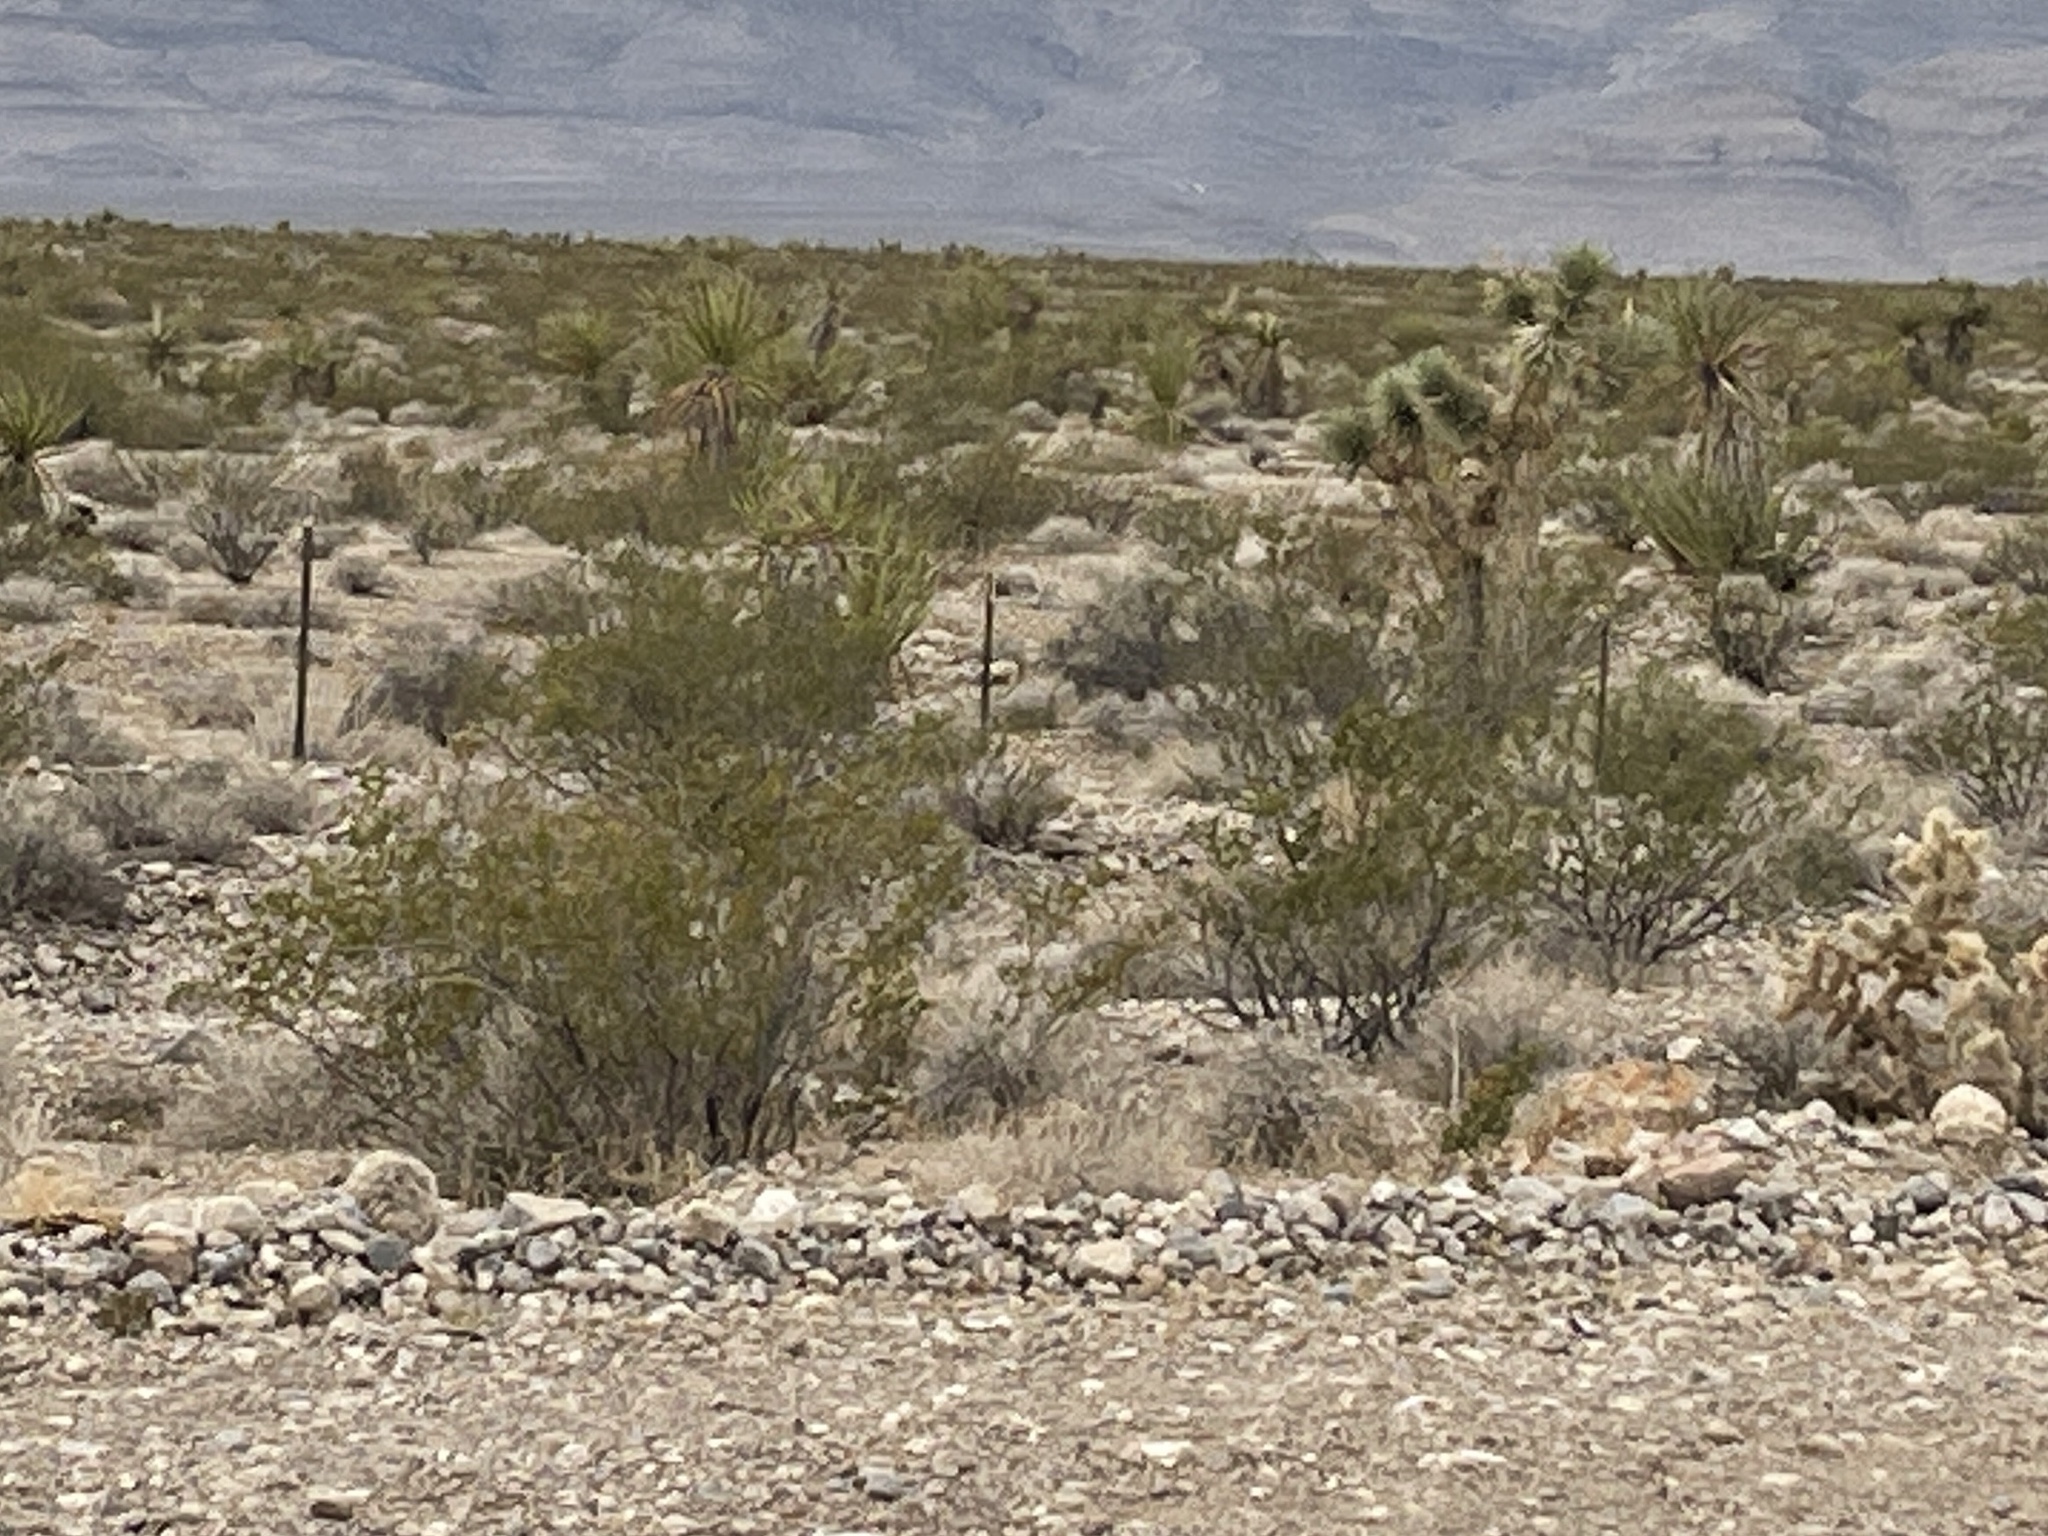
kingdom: Plantae
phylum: Tracheophyta
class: Magnoliopsida
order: Zygophyllales
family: Zygophyllaceae
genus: Larrea
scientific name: Larrea tridentata
